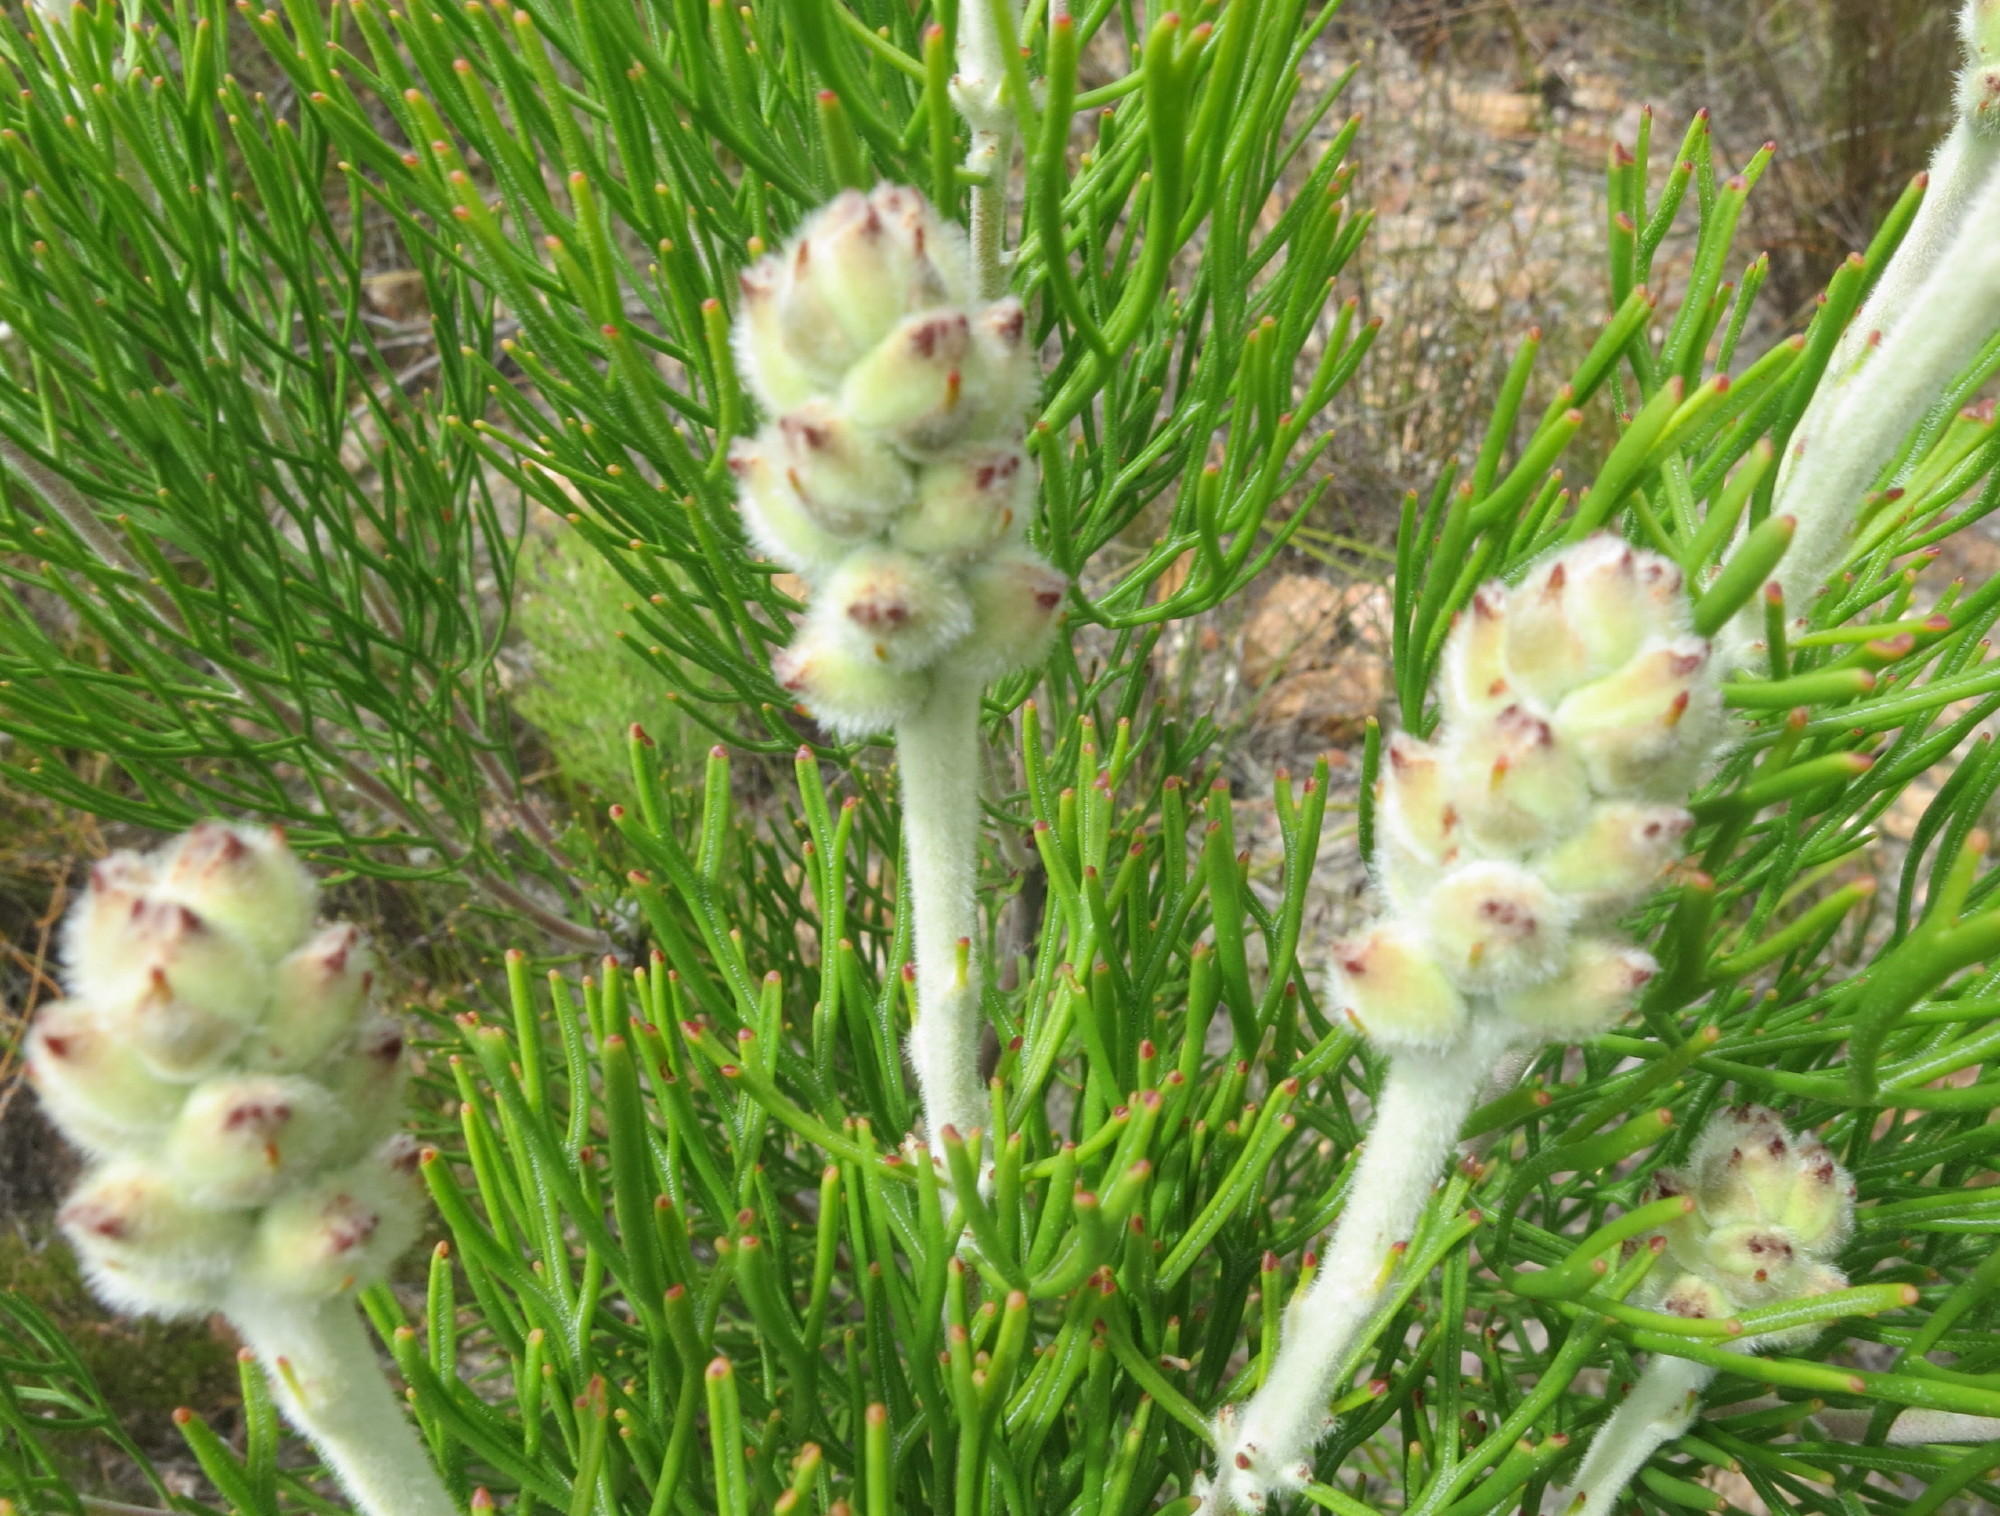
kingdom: Plantae
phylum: Tracheophyta
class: Magnoliopsida
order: Proteales
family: Proteaceae
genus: Paranomus
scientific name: Paranomus dregei
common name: Scented sceptre
